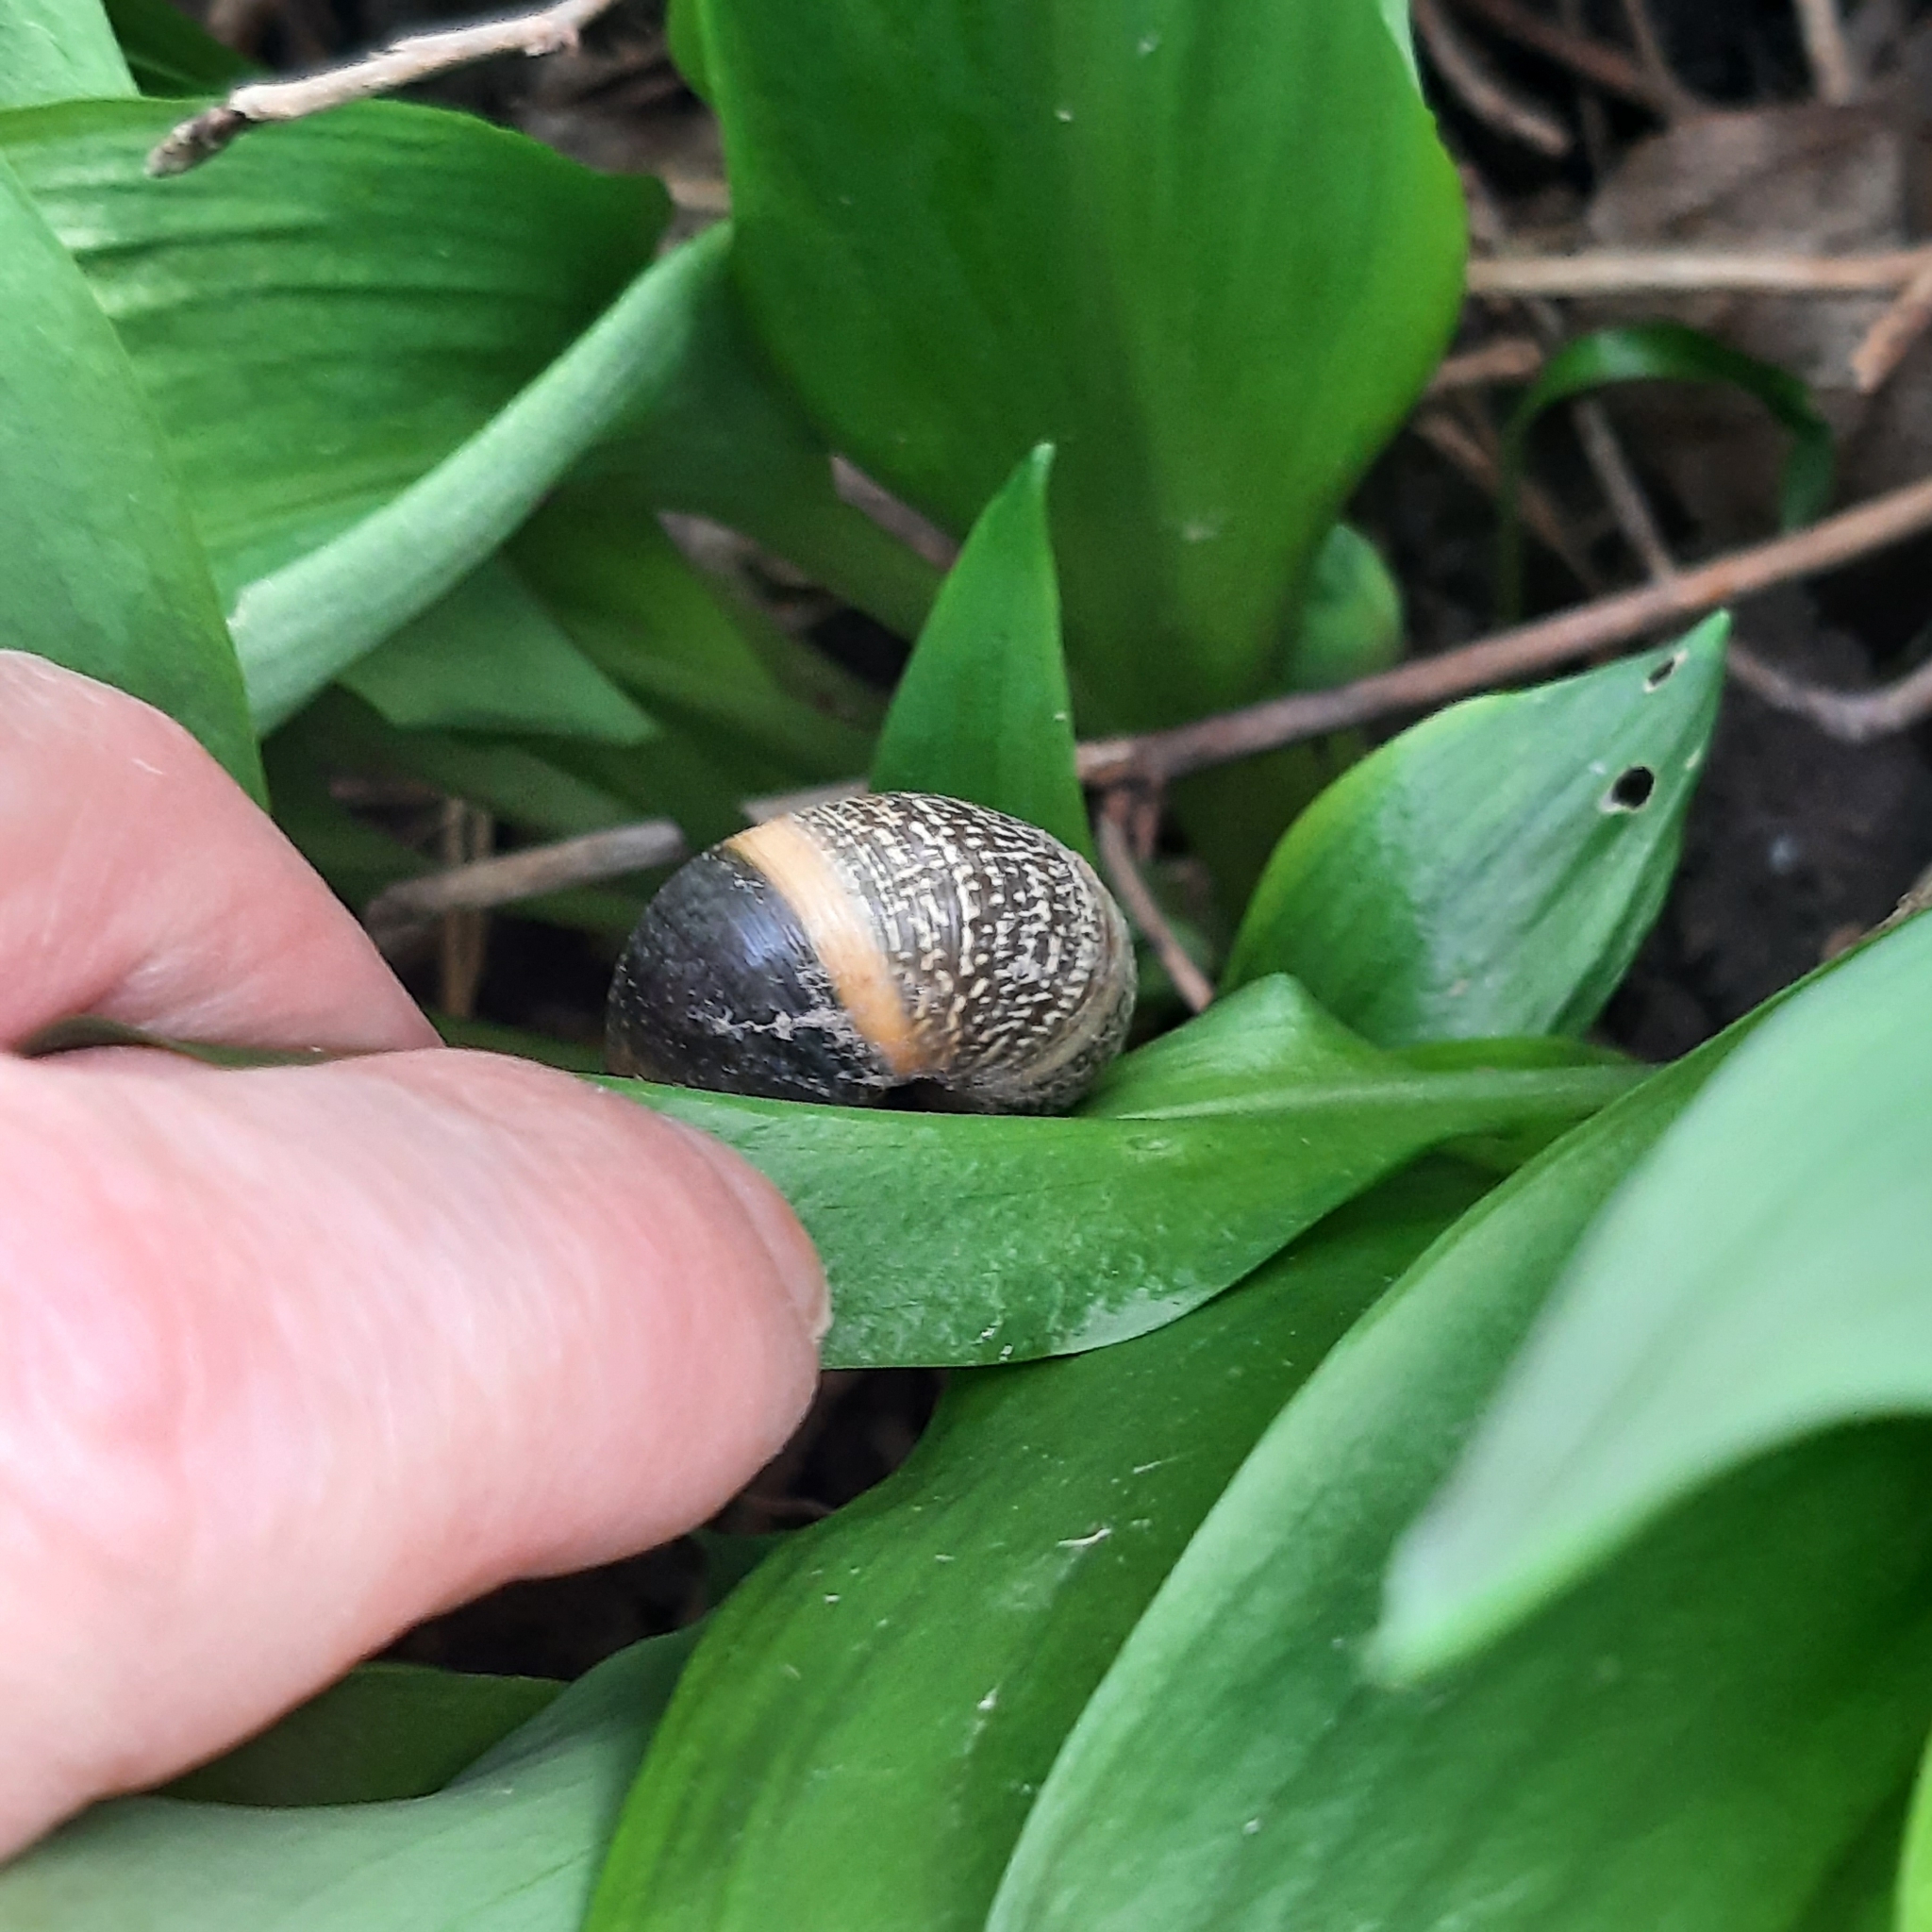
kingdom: Animalia
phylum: Mollusca
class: Gastropoda
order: Stylommatophora
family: Helicidae
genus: Arianta
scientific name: Arianta arbustorum
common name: Copse snail
